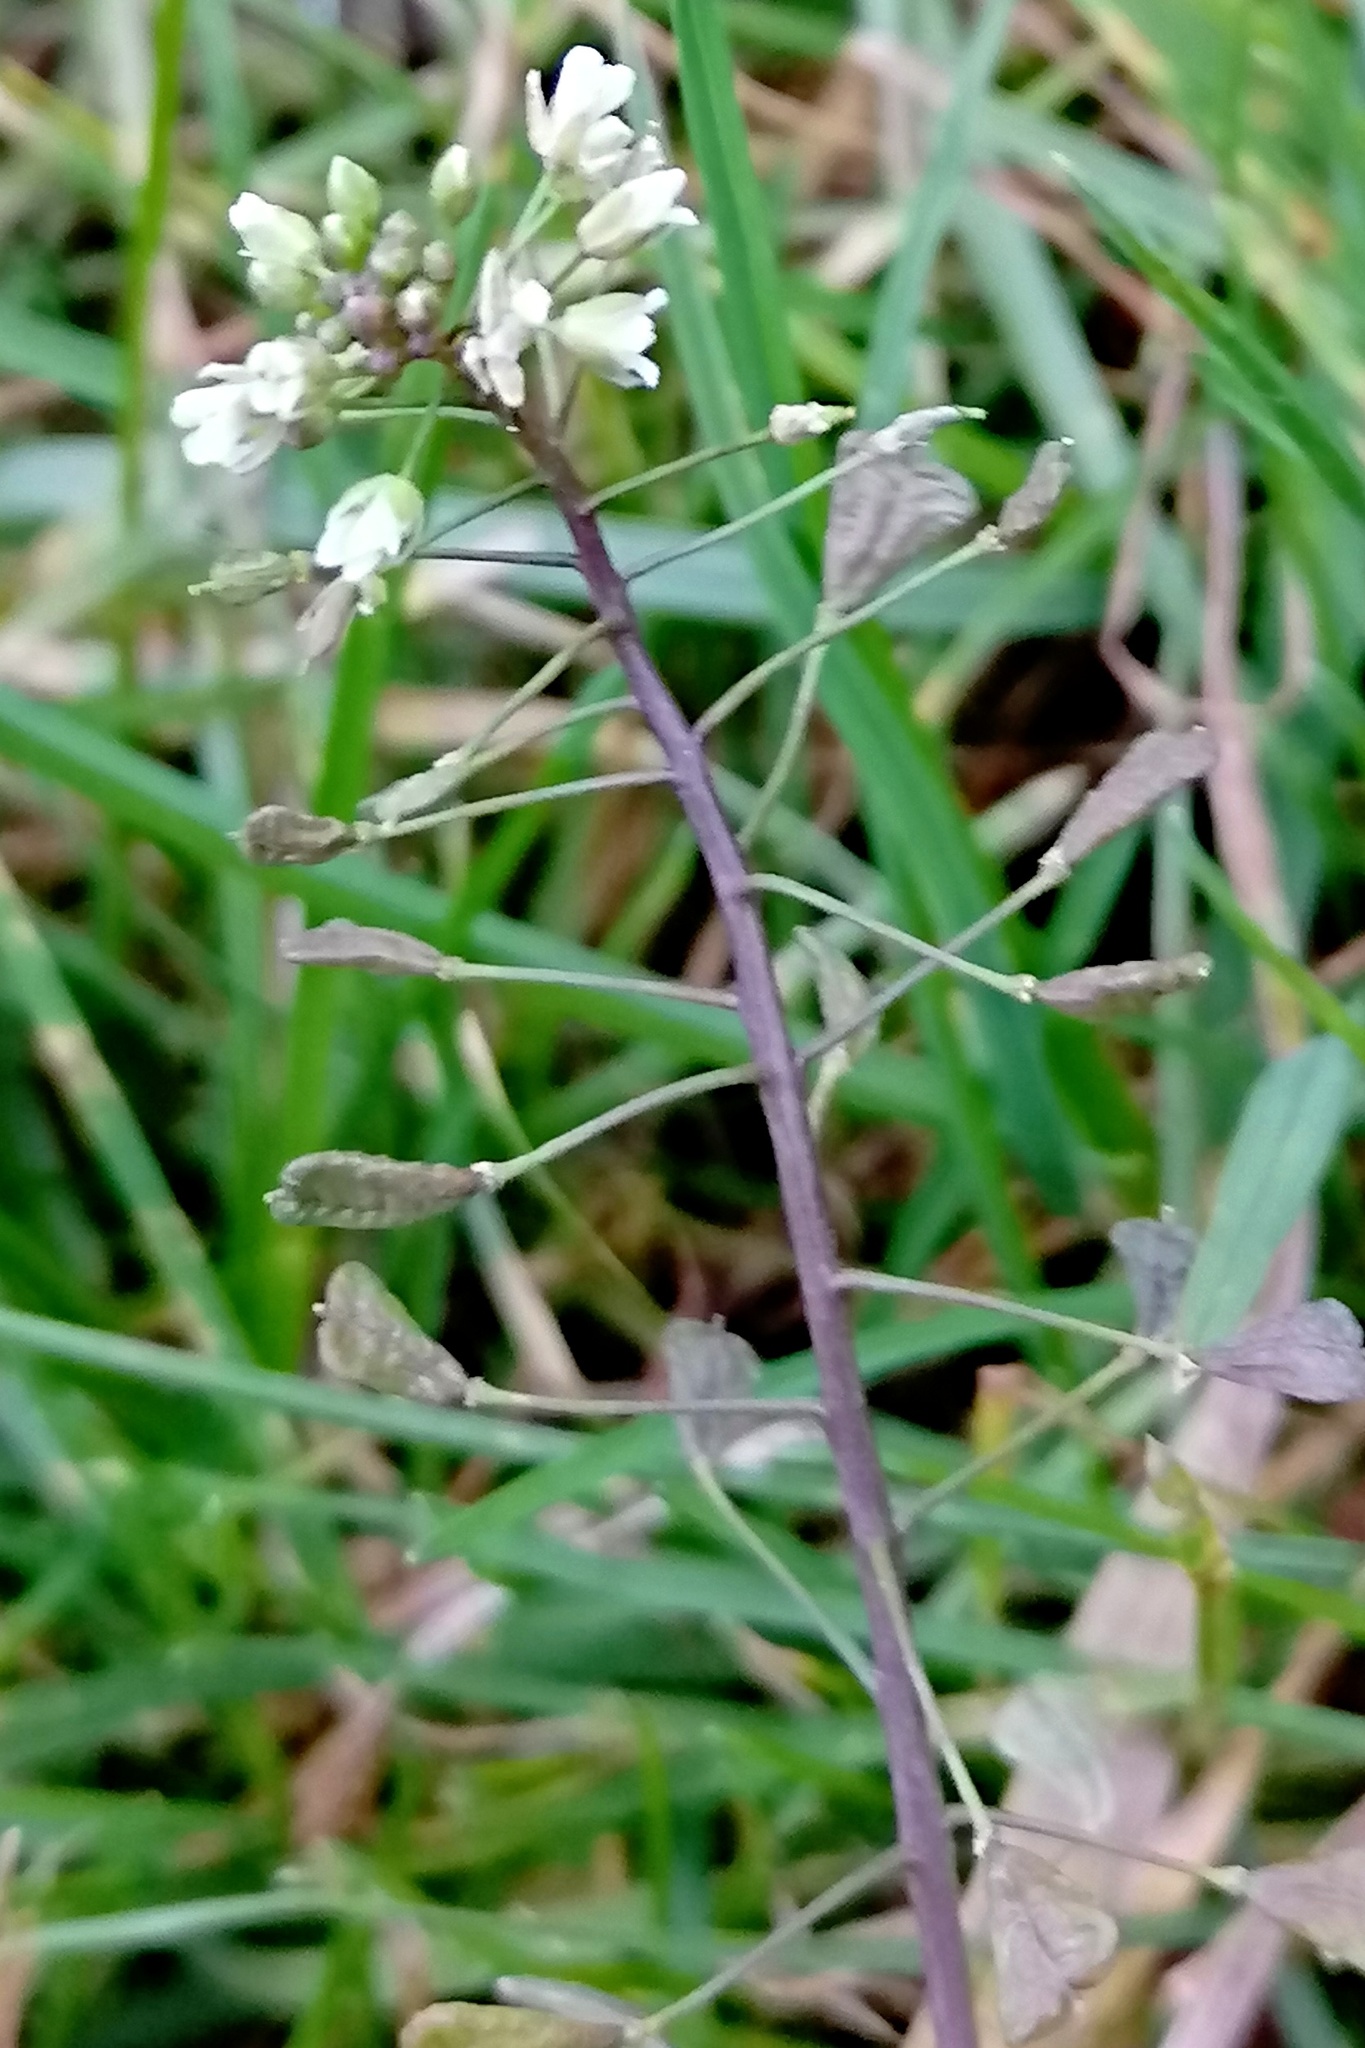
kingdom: Plantae
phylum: Tracheophyta
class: Magnoliopsida
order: Brassicales
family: Brassicaceae
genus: Capsella
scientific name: Capsella bursa-pastoris
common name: Shepherd's purse
